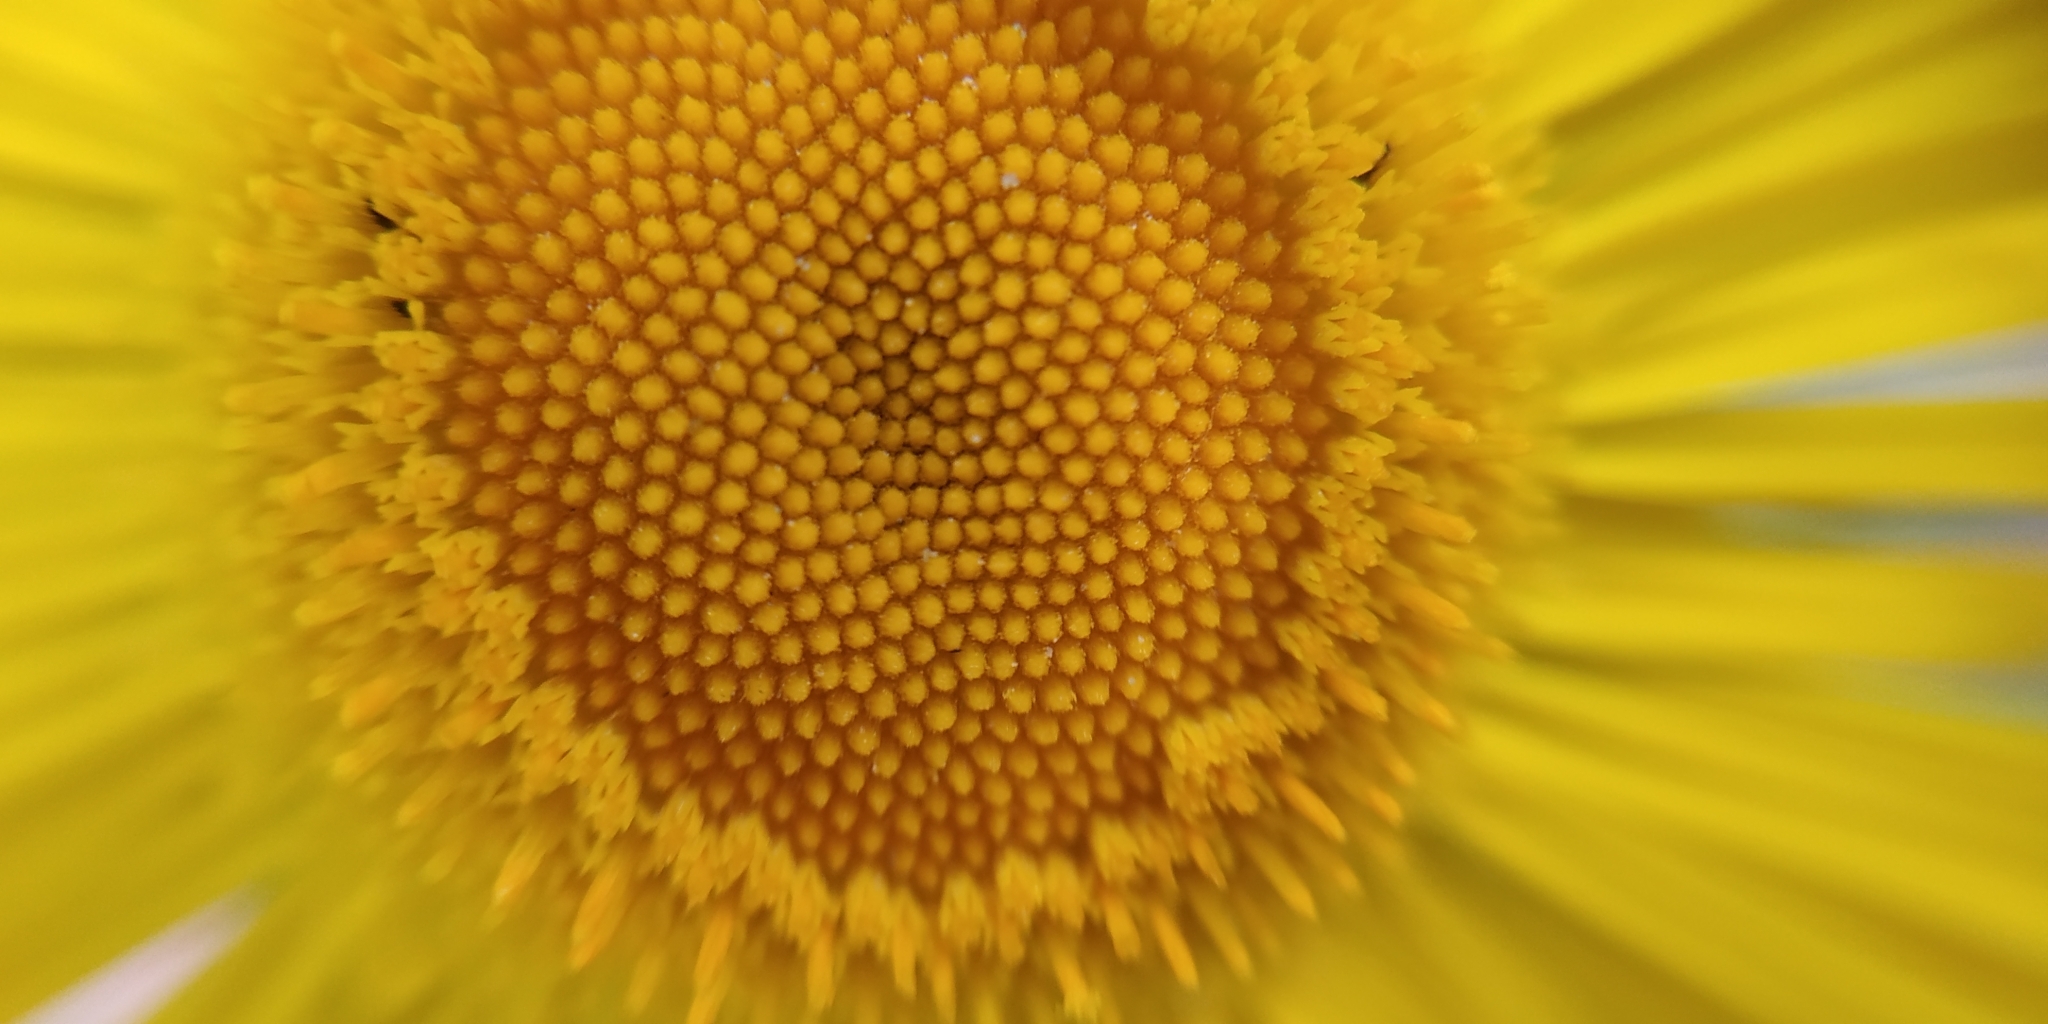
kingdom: Plantae
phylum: Tracheophyta
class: Magnoliopsida
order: Asterales
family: Asteraceae
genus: Pentanema
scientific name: Pentanema britannicum
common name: British elecampane
